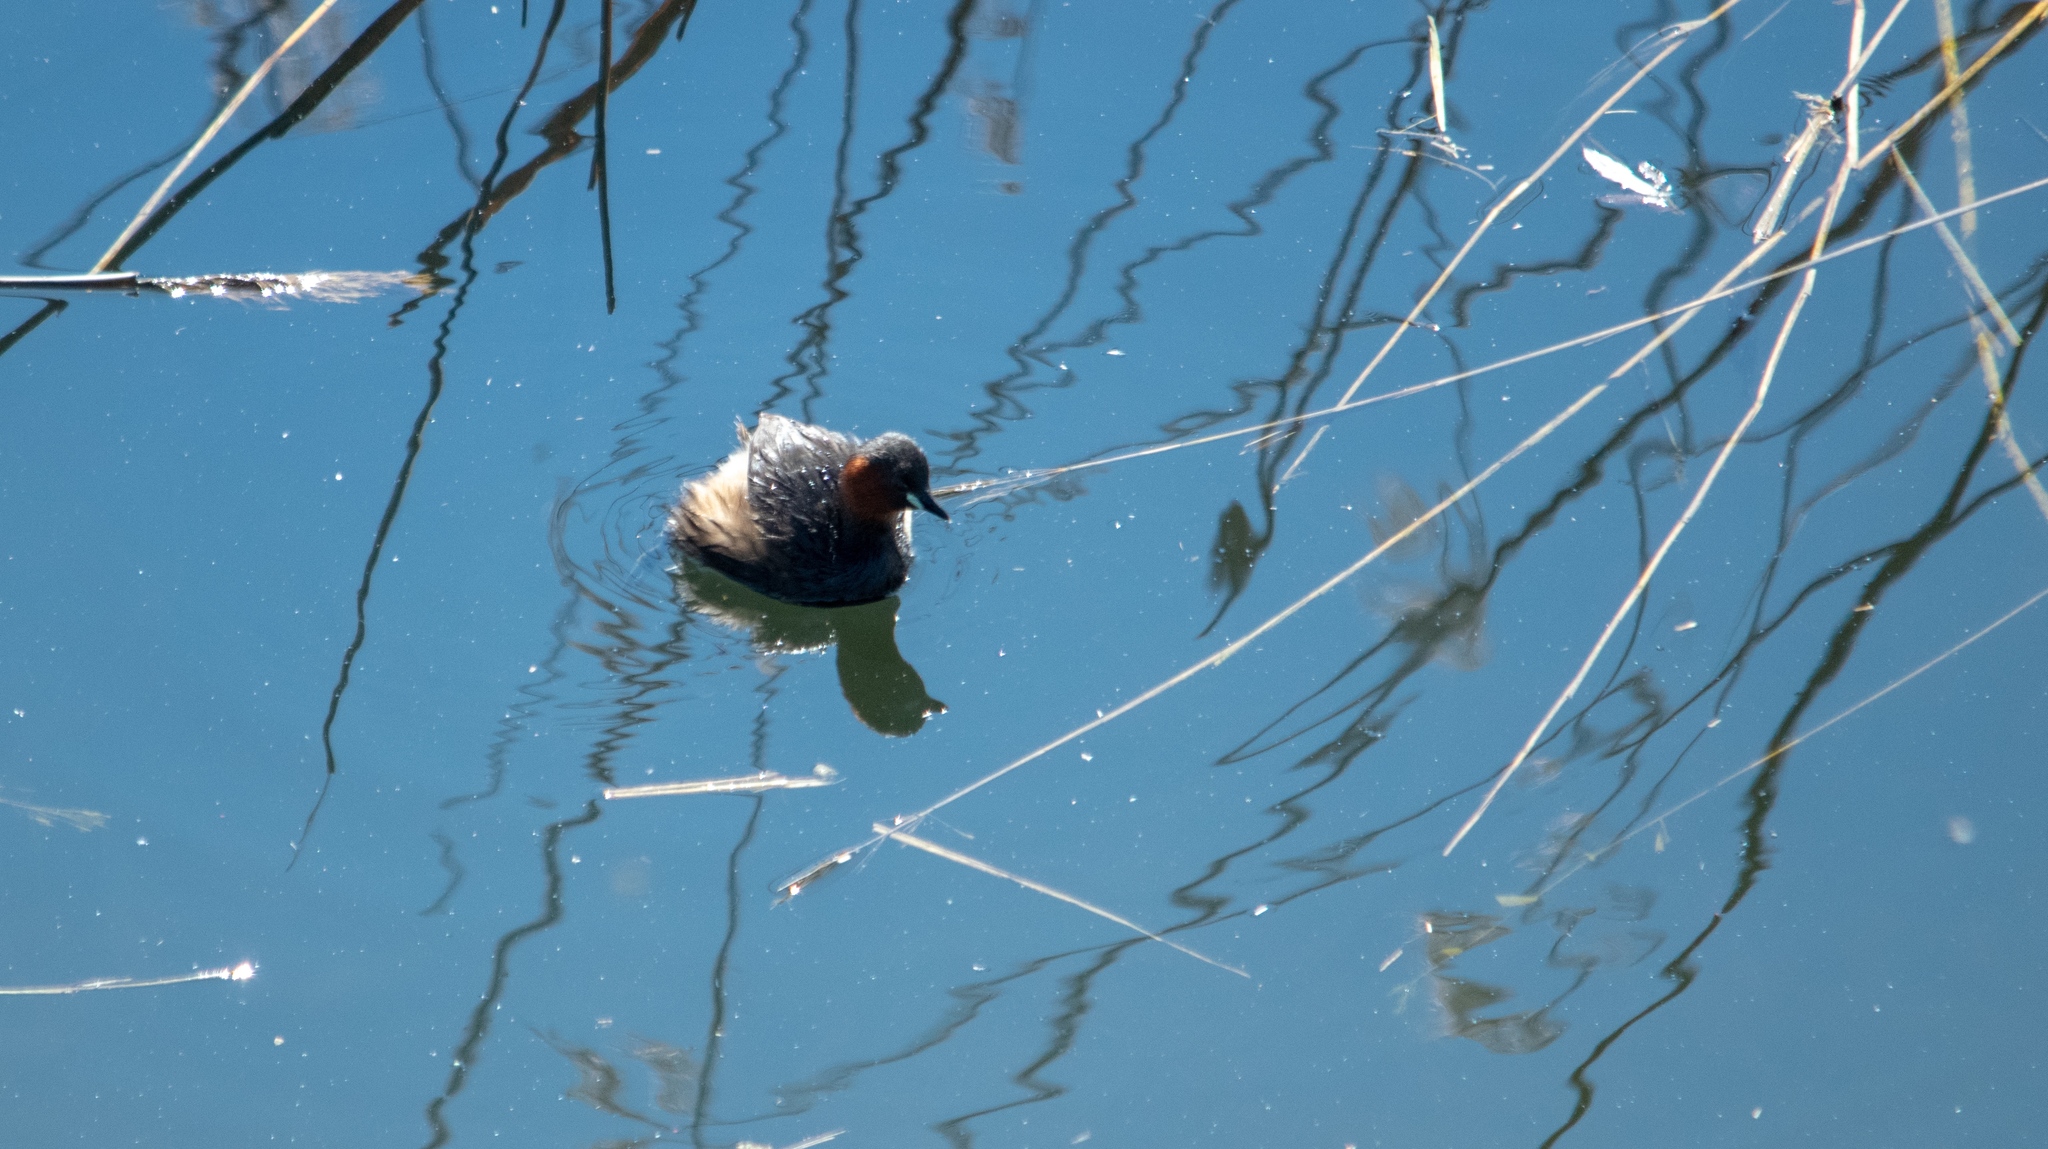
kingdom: Animalia
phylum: Chordata
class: Aves
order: Podicipediformes
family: Podicipedidae
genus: Tachybaptus
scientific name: Tachybaptus ruficollis
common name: Little grebe
